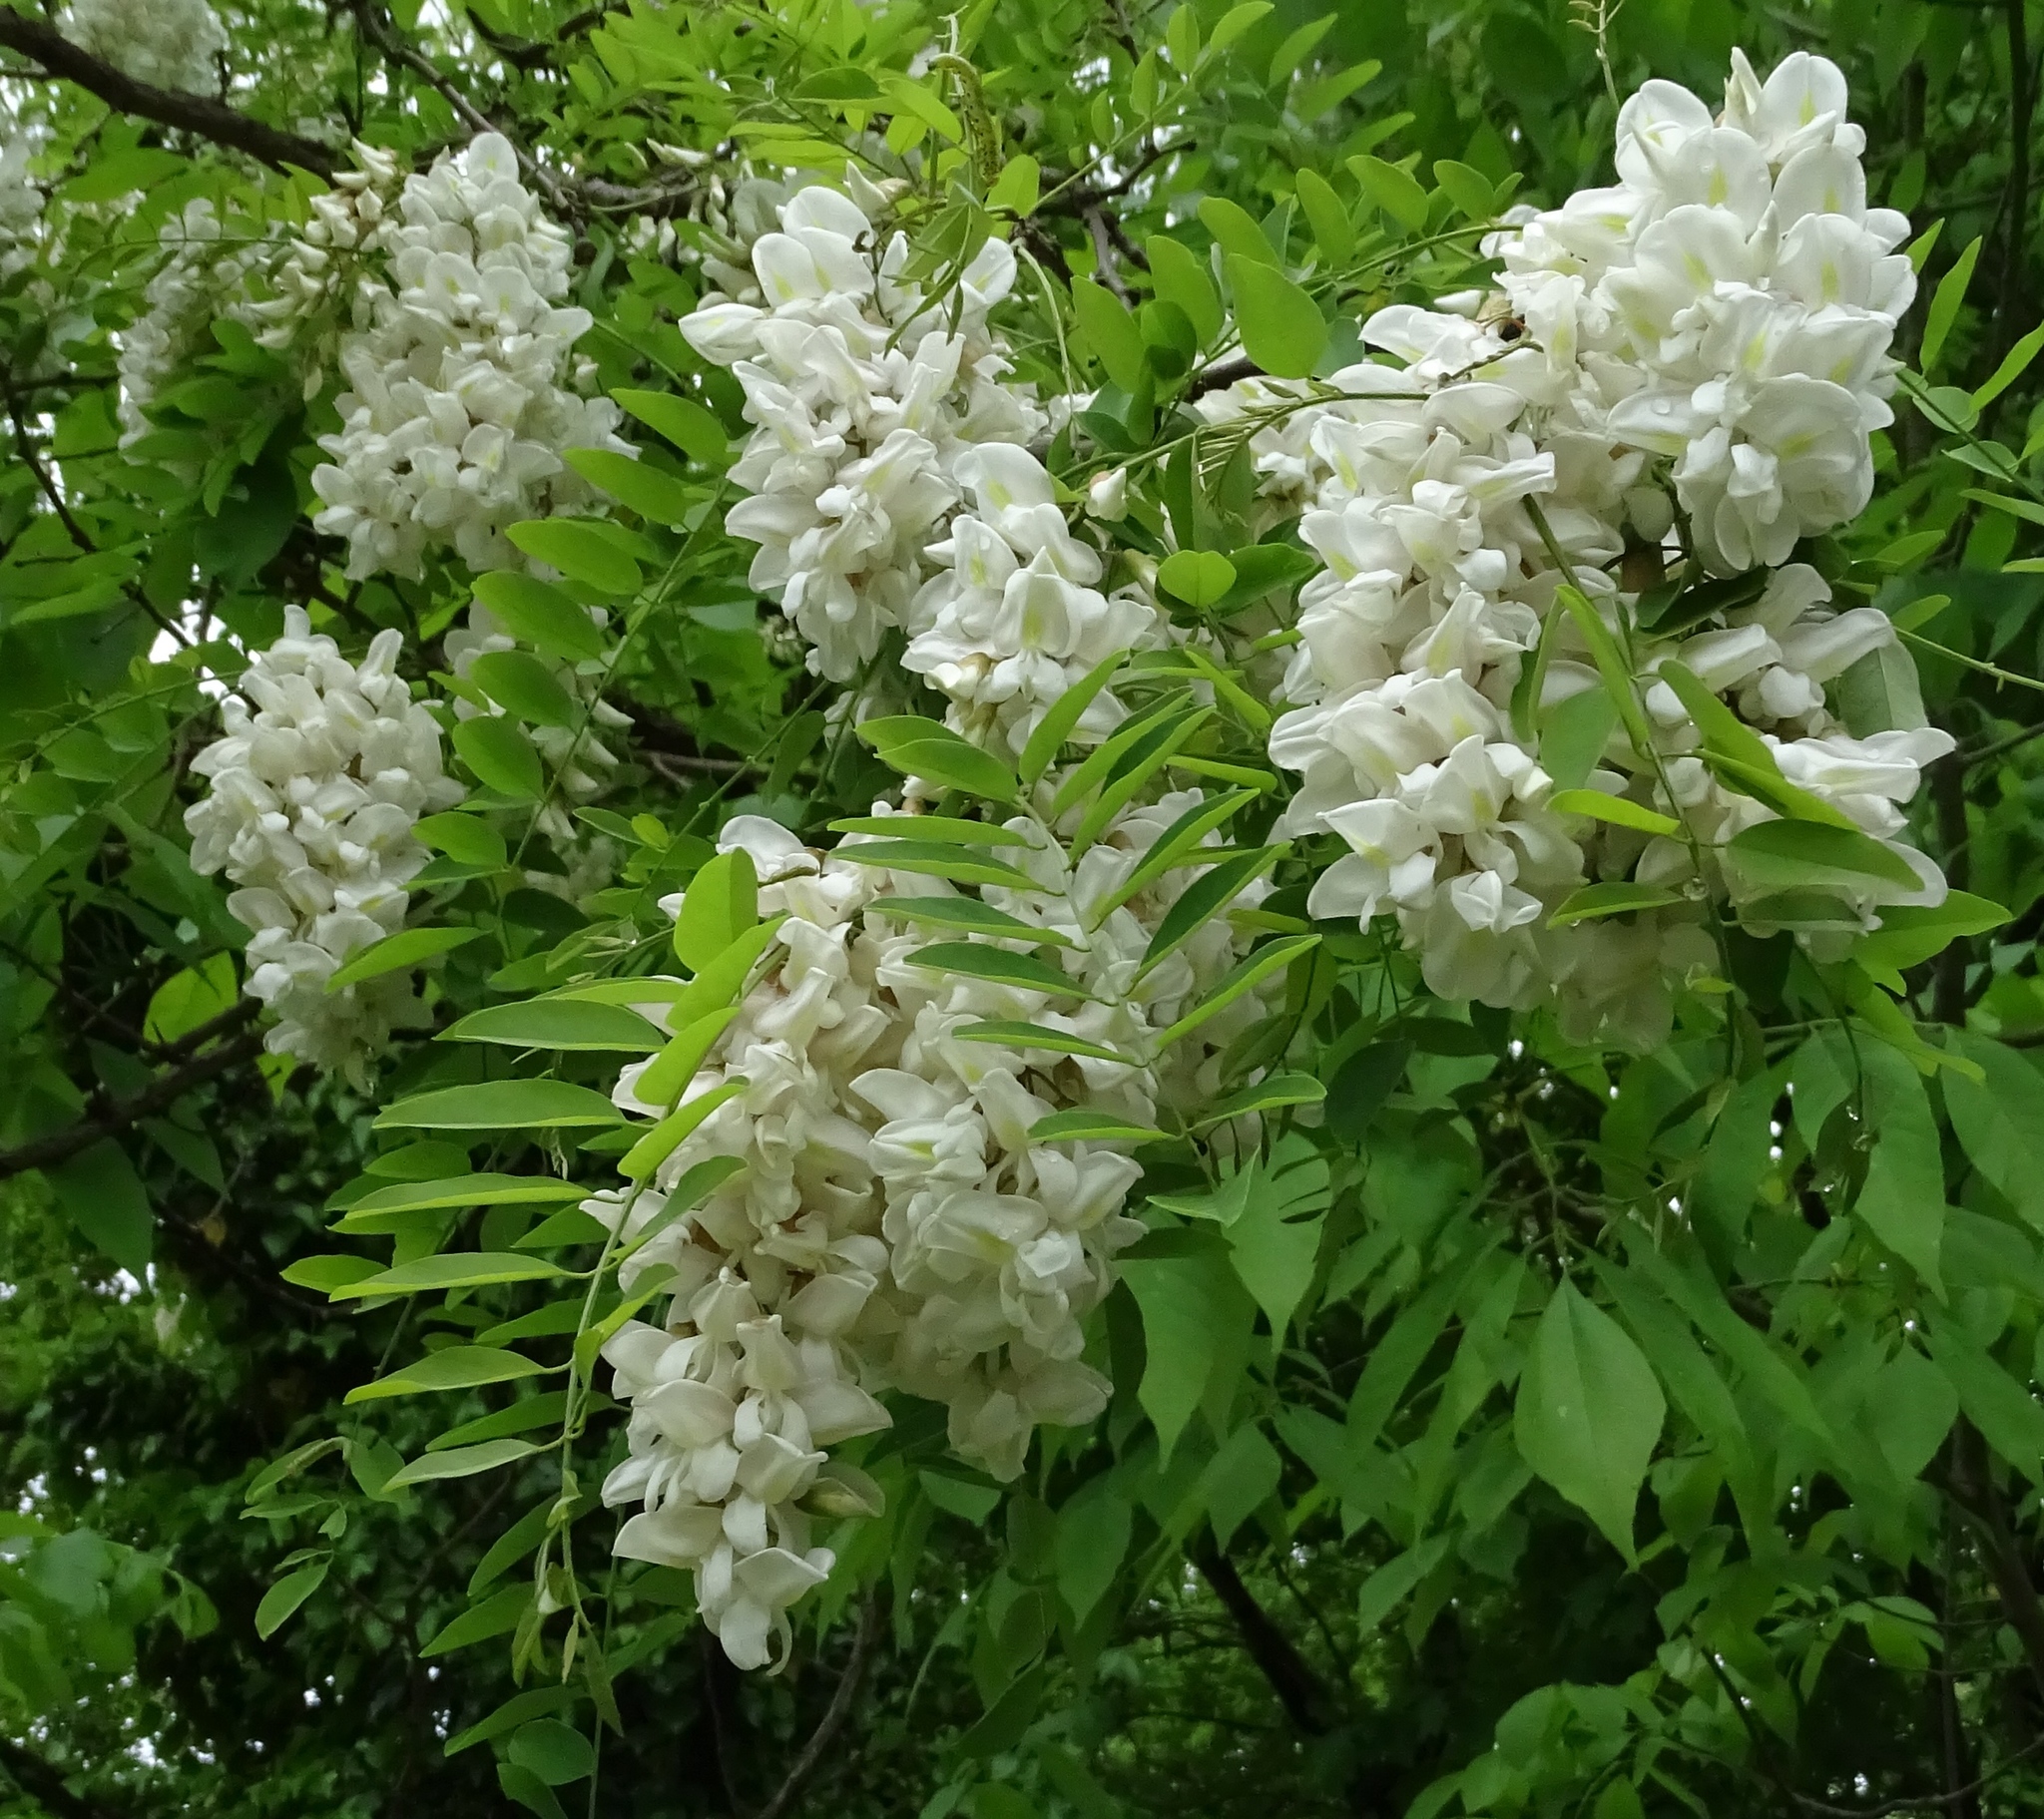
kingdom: Plantae
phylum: Tracheophyta
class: Magnoliopsida
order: Fabales
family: Fabaceae
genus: Robinia
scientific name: Robinia pseudoacacia
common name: Black locust
